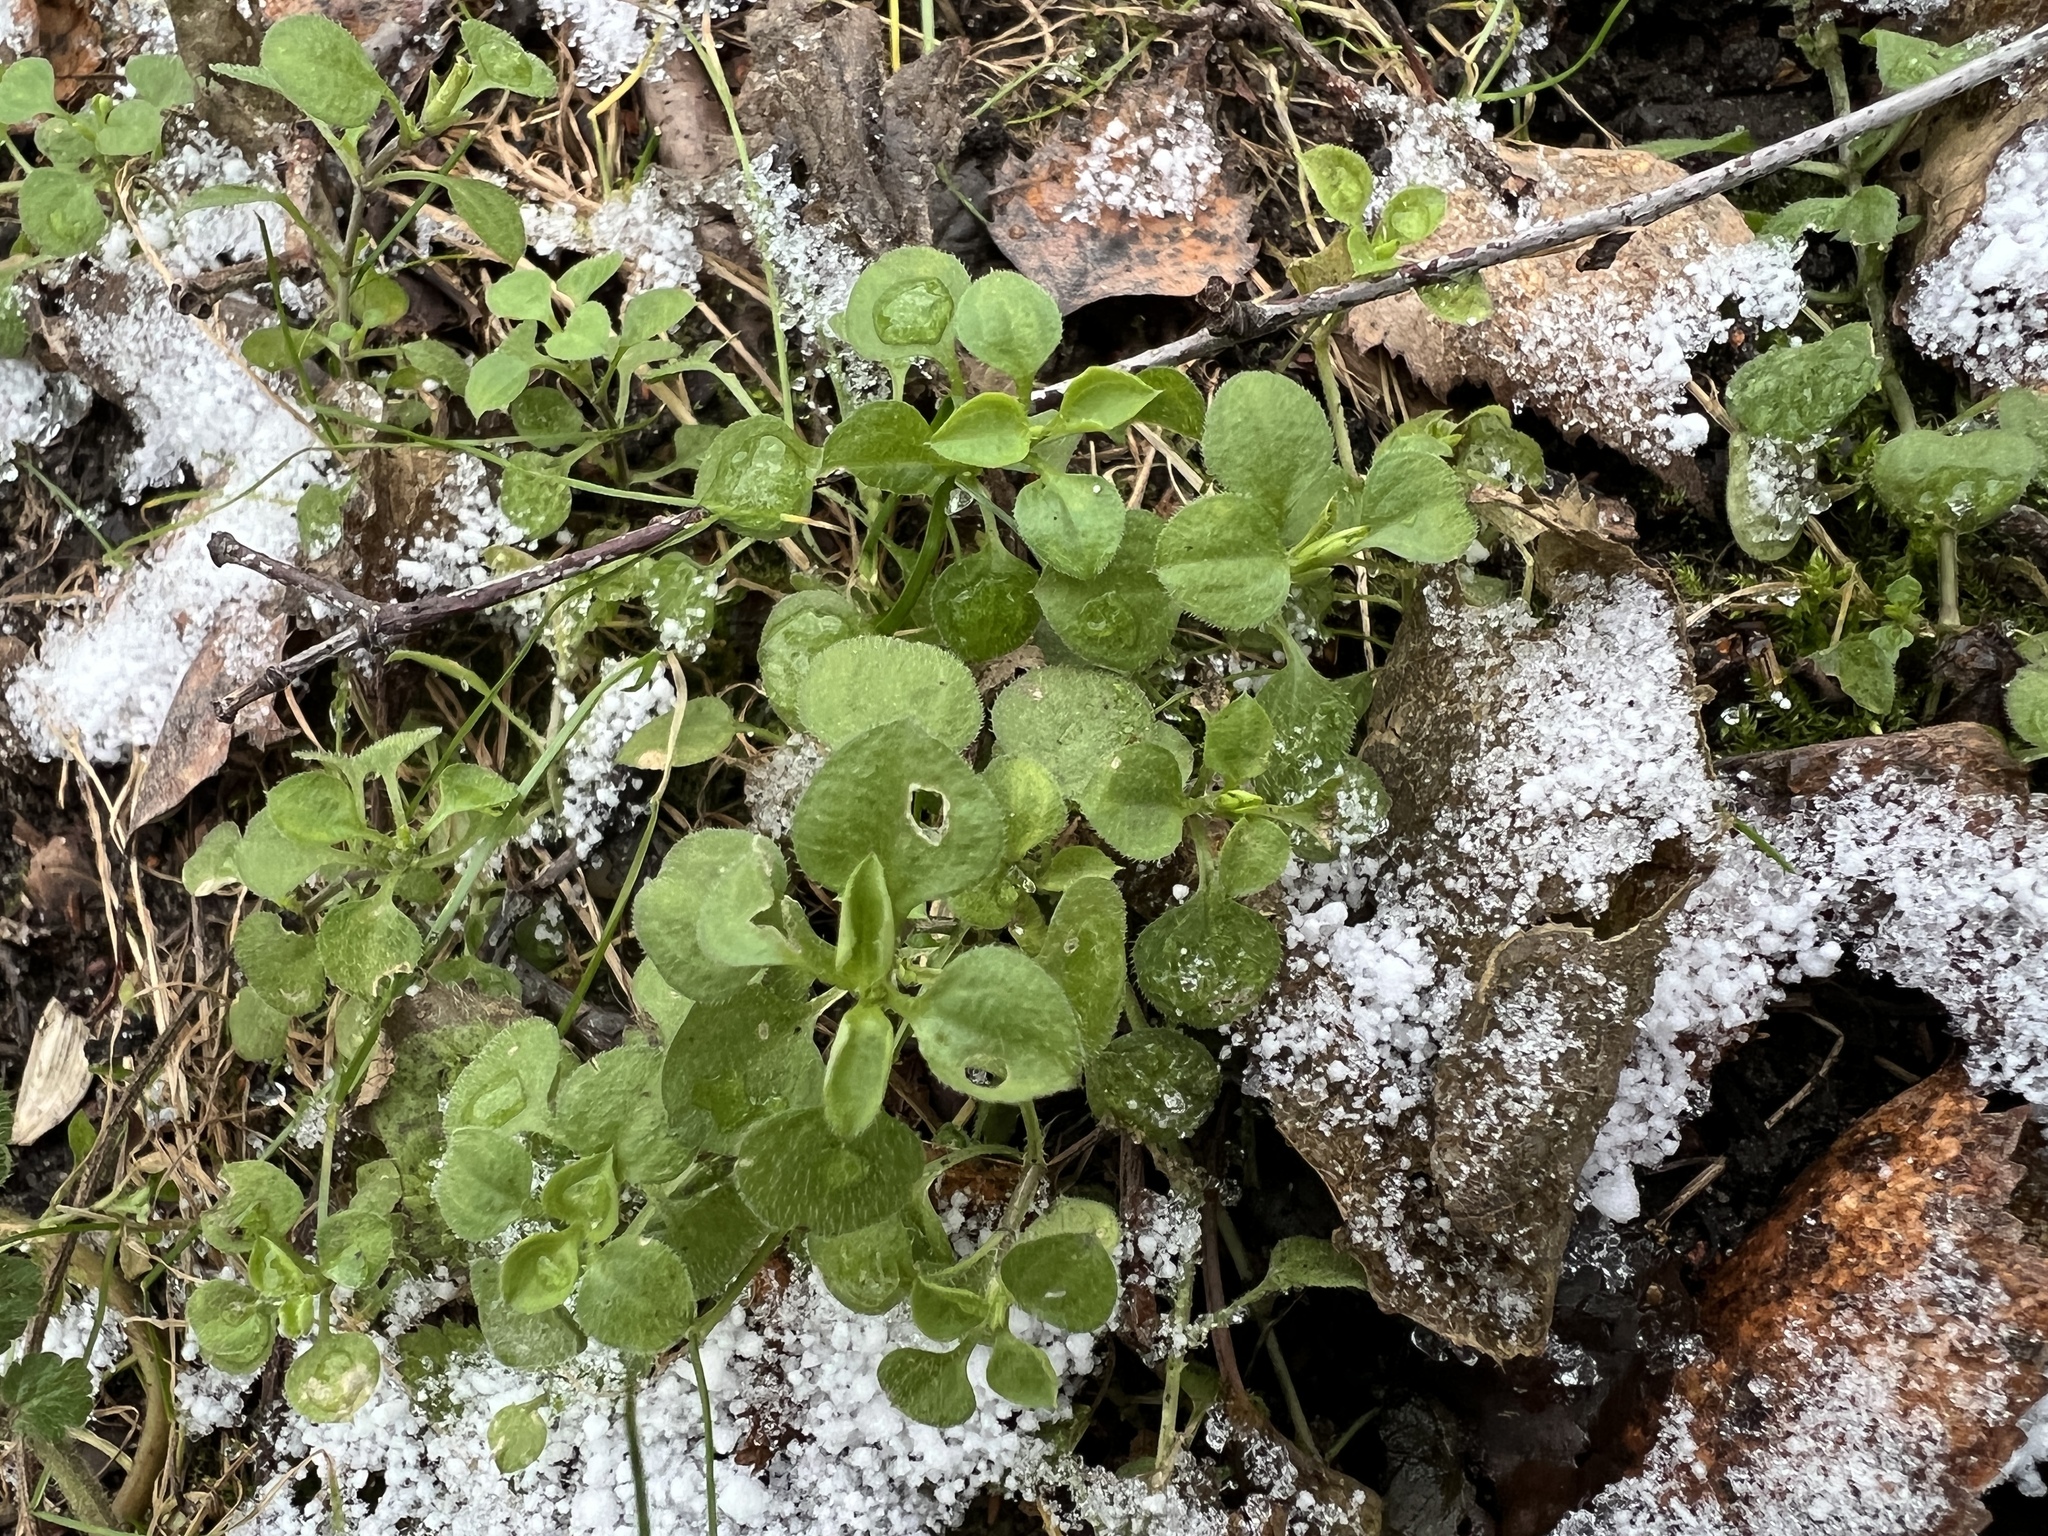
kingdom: Plantae
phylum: Tracheophyta
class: Magnoliopsida
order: Caryophyllales
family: Caryophyllaceae
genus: Moehringia
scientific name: Moehringia trinervia
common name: Three-nerved sandwort
